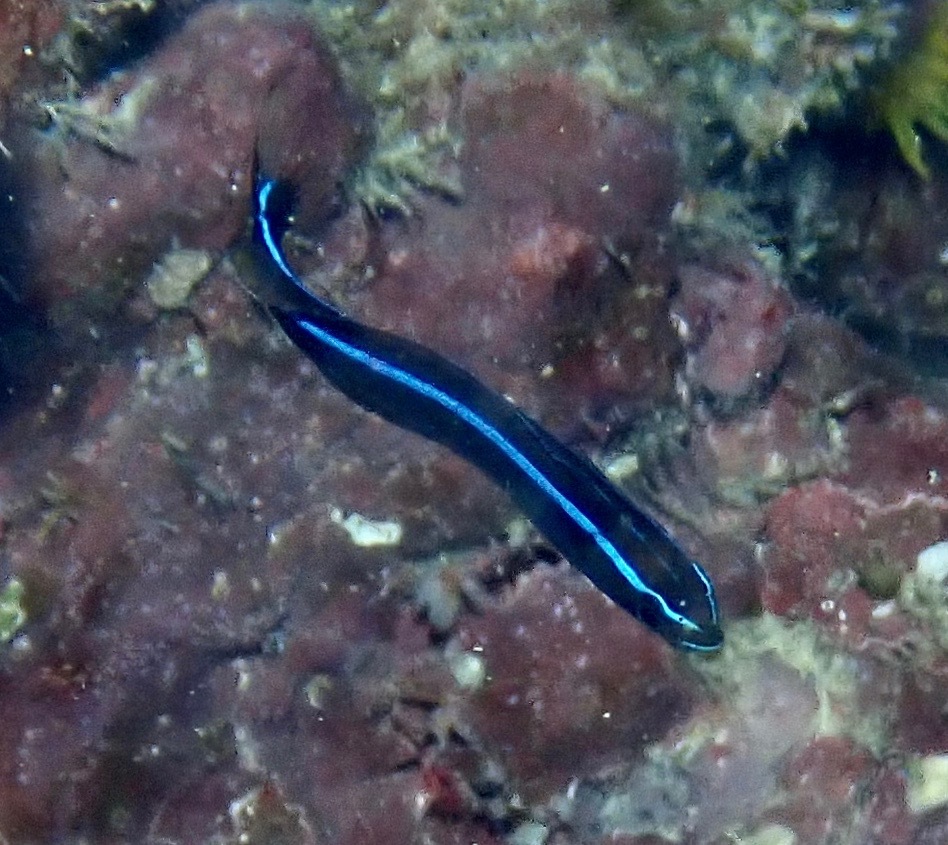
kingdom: Animalia
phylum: Chordata
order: Perciformes
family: Blenniidae
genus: Plagiotremus
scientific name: Plagiotremus rhinorhynchos
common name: Bluestriped fangblenny
